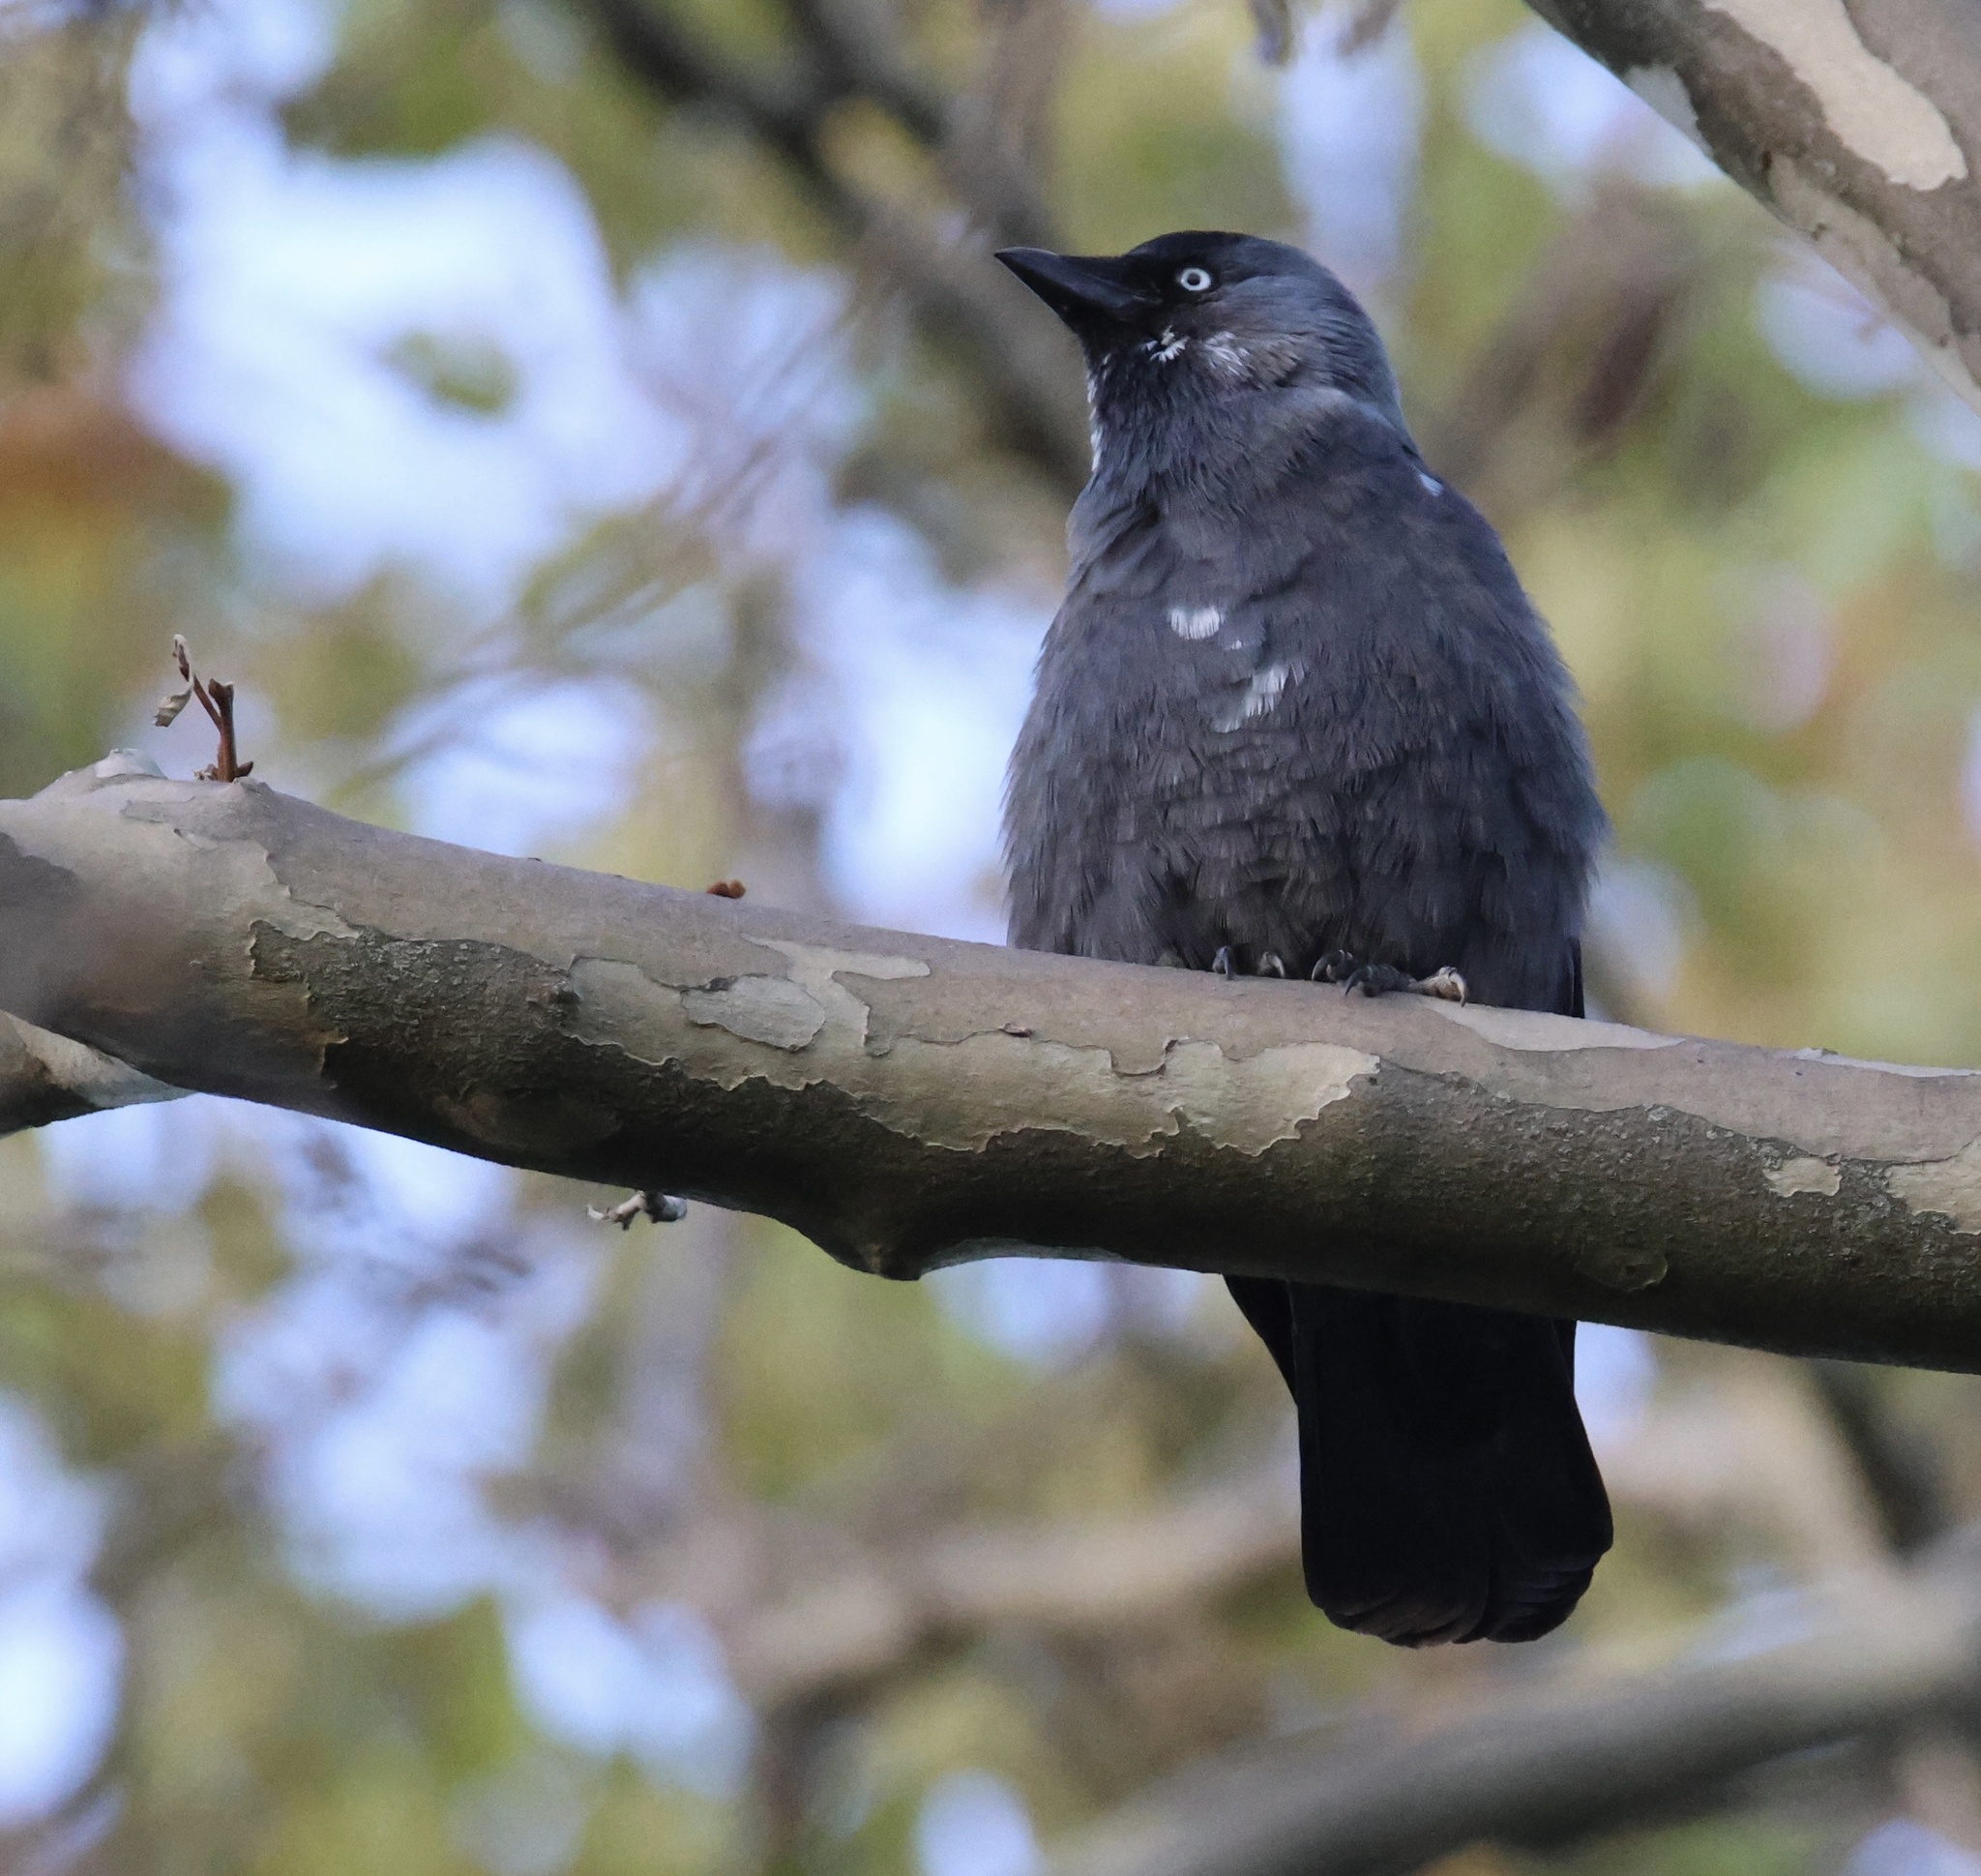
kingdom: Animalia
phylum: Chordata
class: Aves
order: Passeriformes
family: Corvidae
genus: Coloeus
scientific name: Coloeus monedula
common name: Western jackdaw
